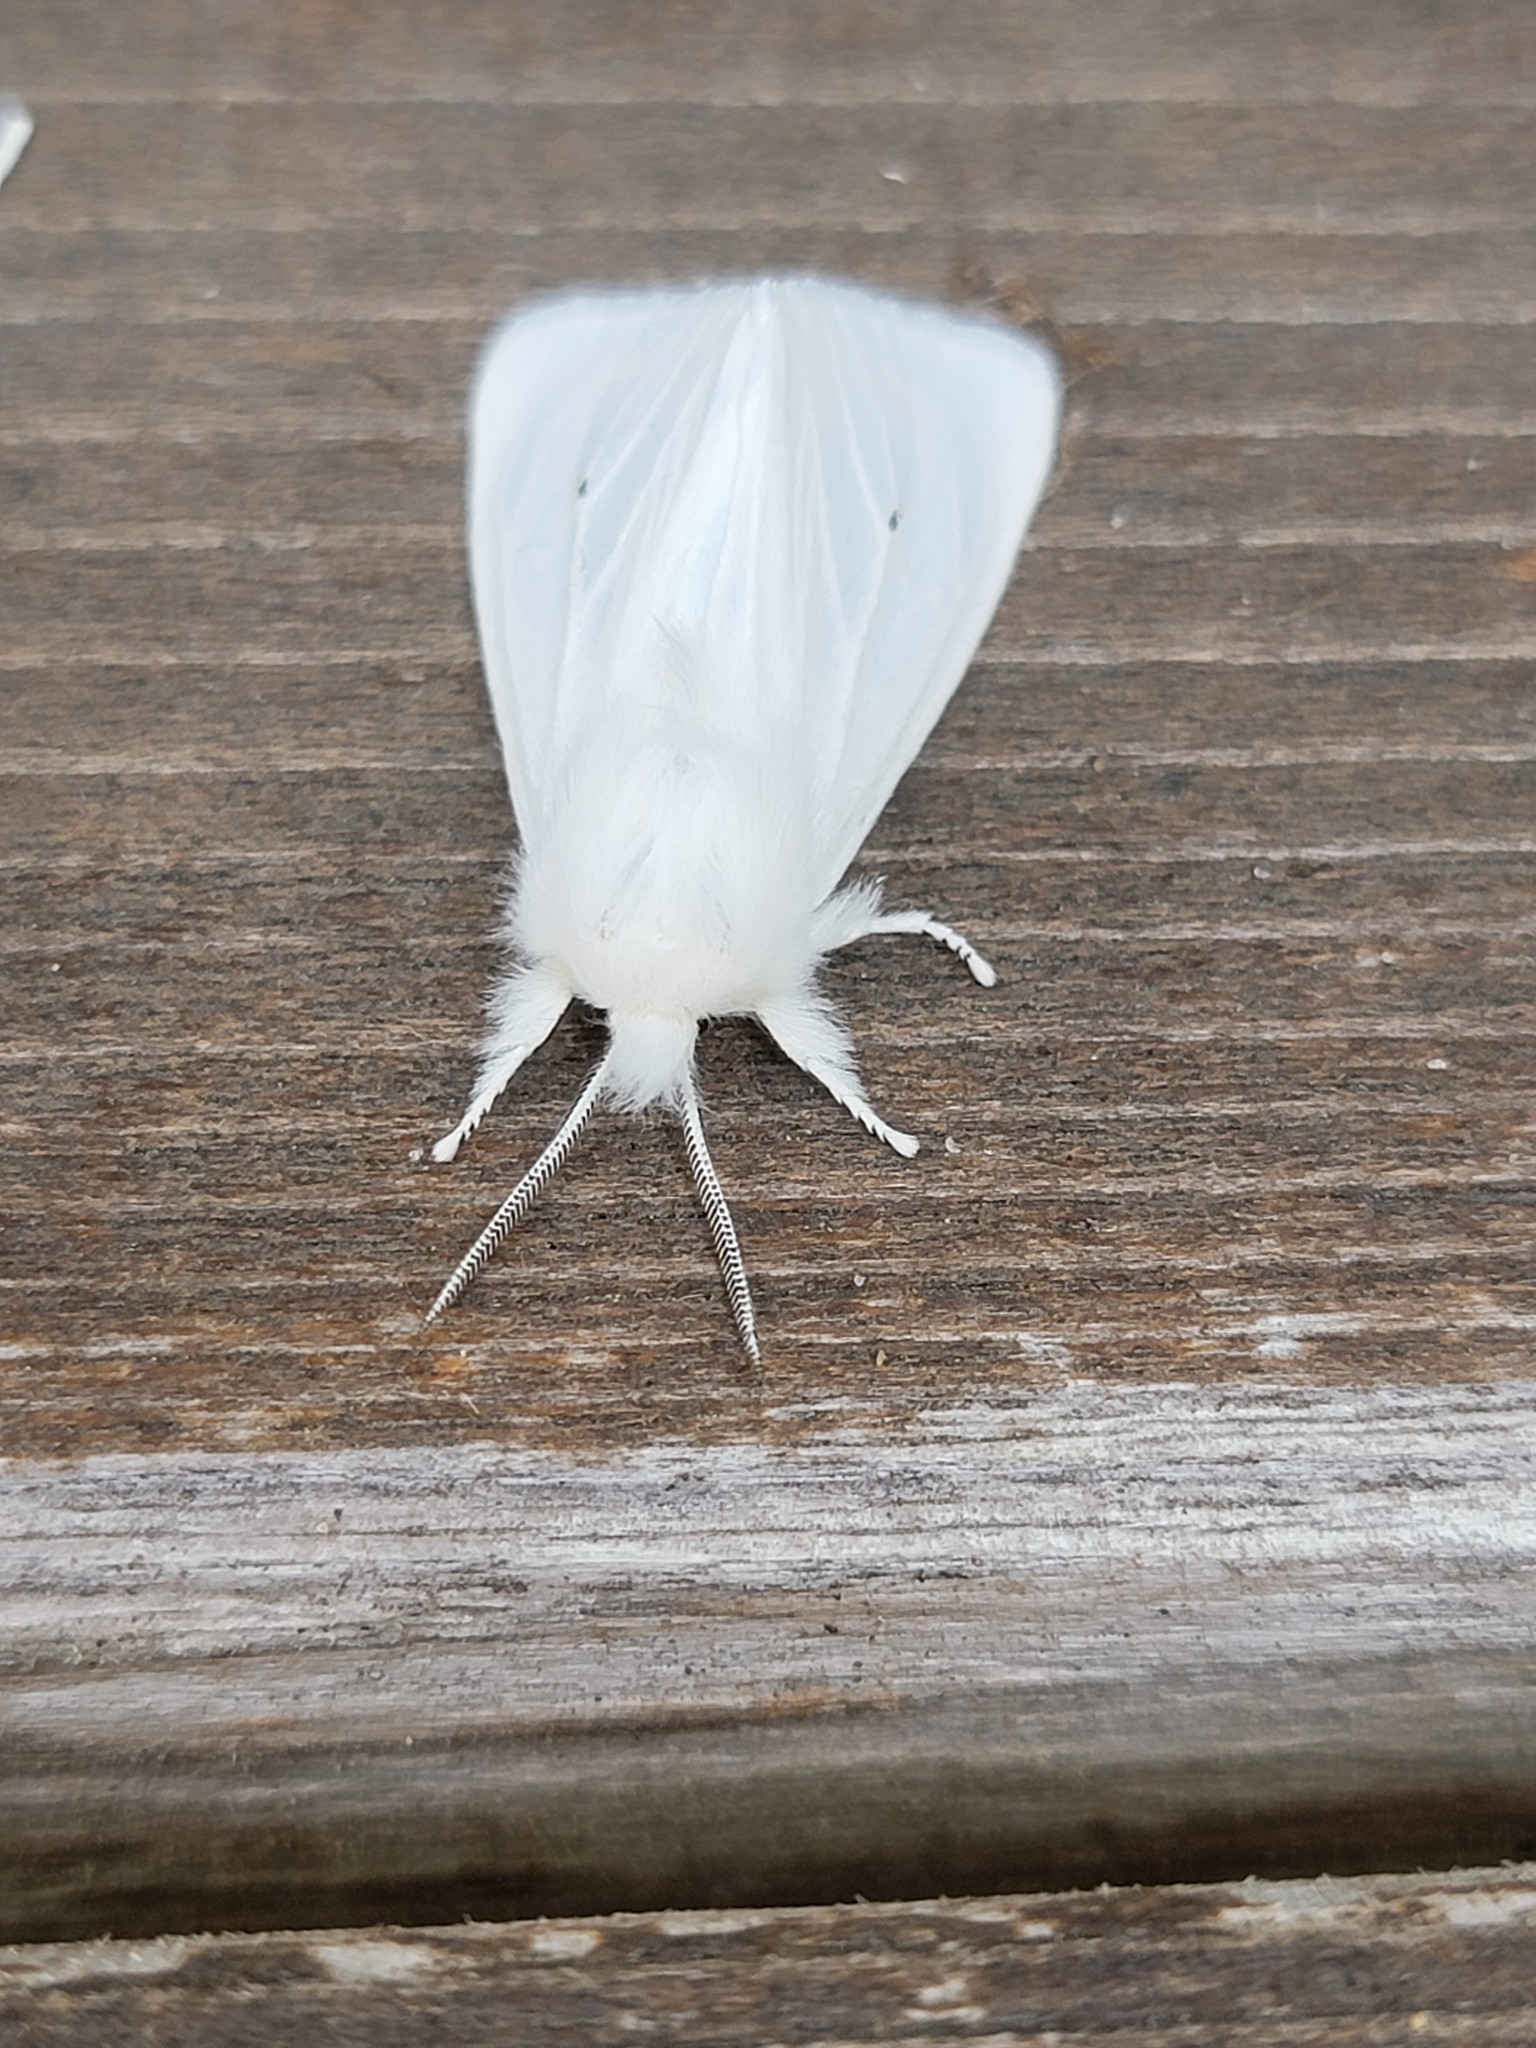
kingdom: Animalia
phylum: Arthropoda
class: Insecta
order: Lepidoptera
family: Erebidae
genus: Spilosoma
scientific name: Spilosoma virginica
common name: Virginia tiger moth
